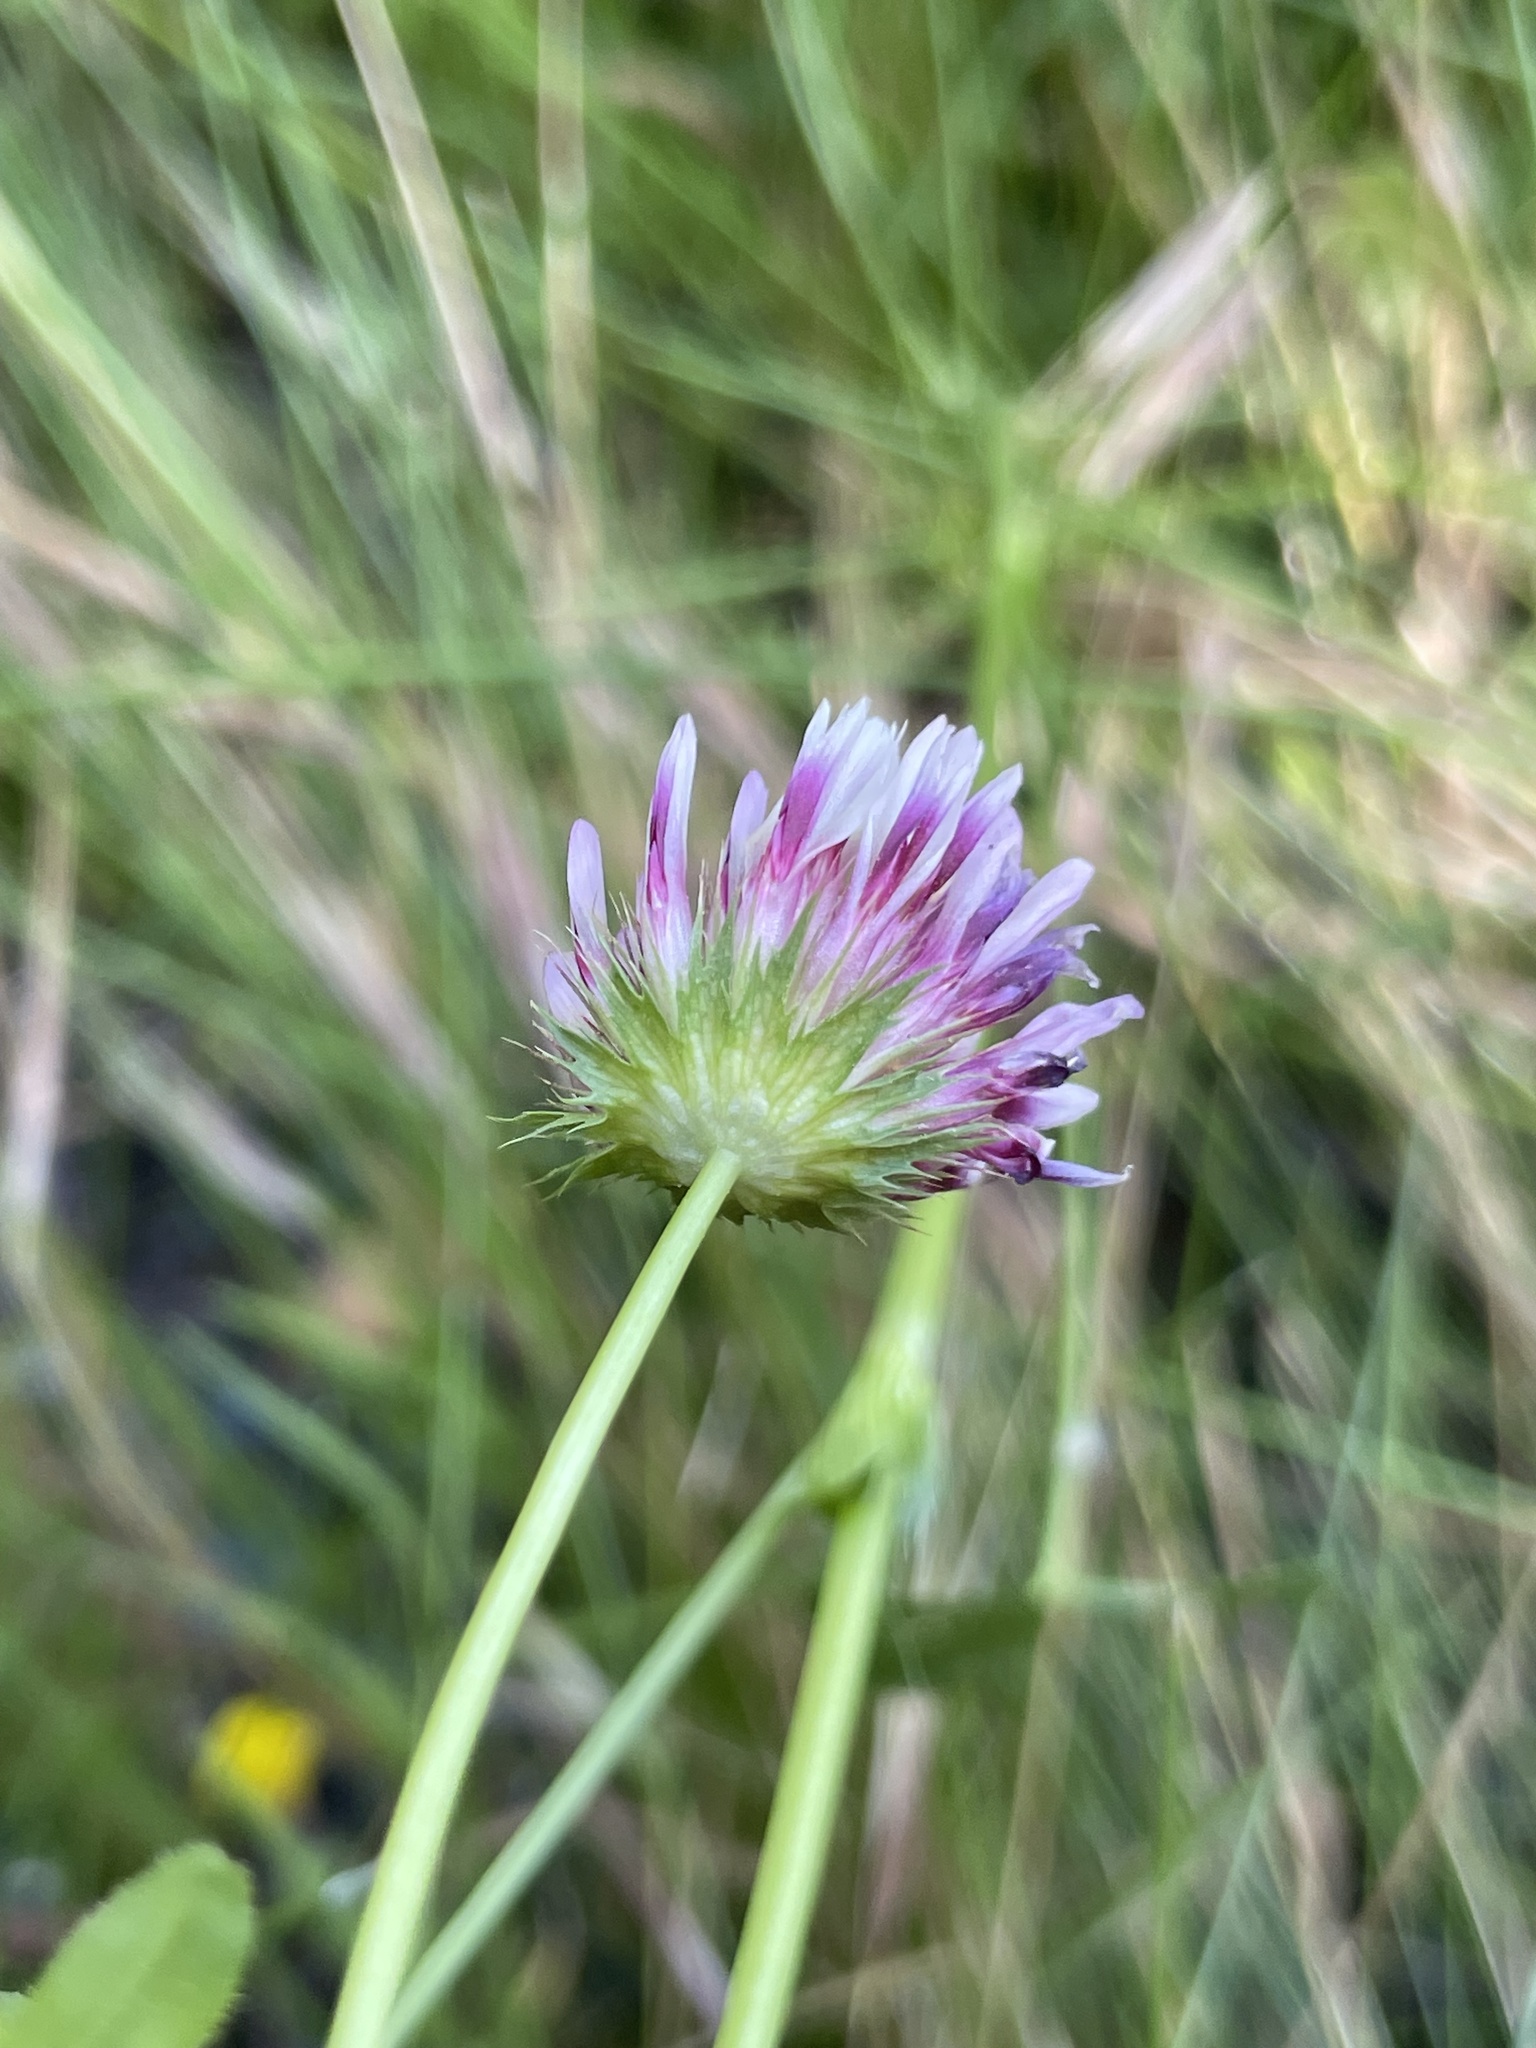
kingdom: Plantae
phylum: Tracheophyta
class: Magnoliopsida
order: Fabales
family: Fabaceae
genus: Trifolium
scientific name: Trifolium wormskioldii
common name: Springbank clover
